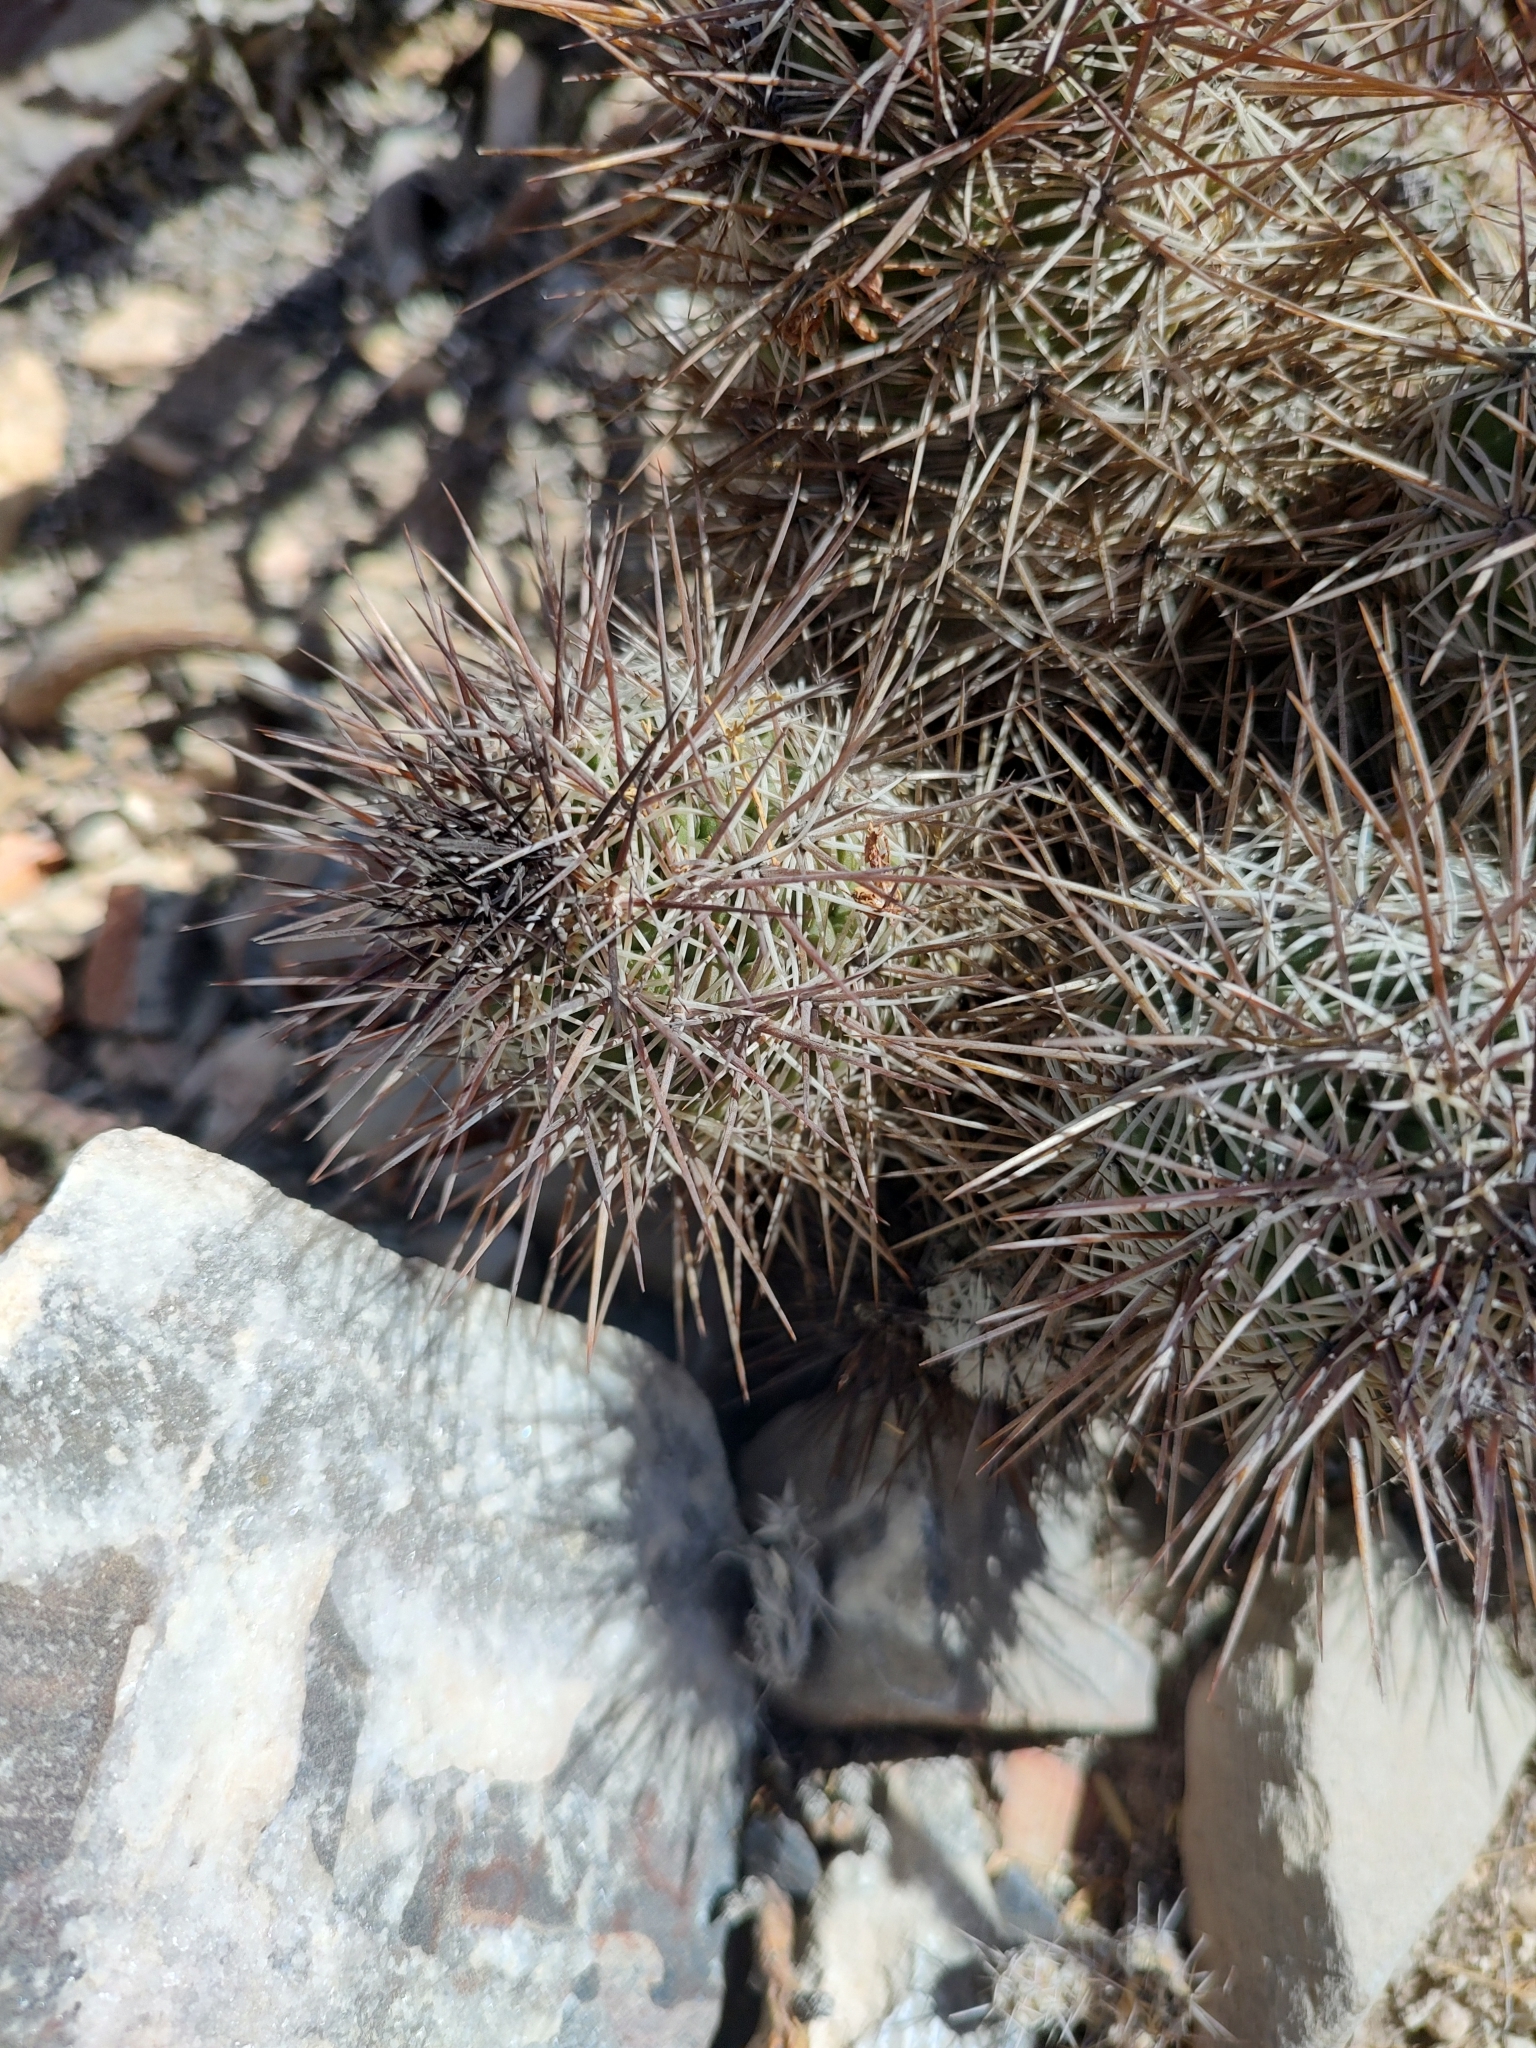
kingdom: Plantae
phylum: Tracheophyta
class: Magnoliopsida
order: Caryophyllales
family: Cactaceae
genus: Cochemiea
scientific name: Cochemiea conoidea
